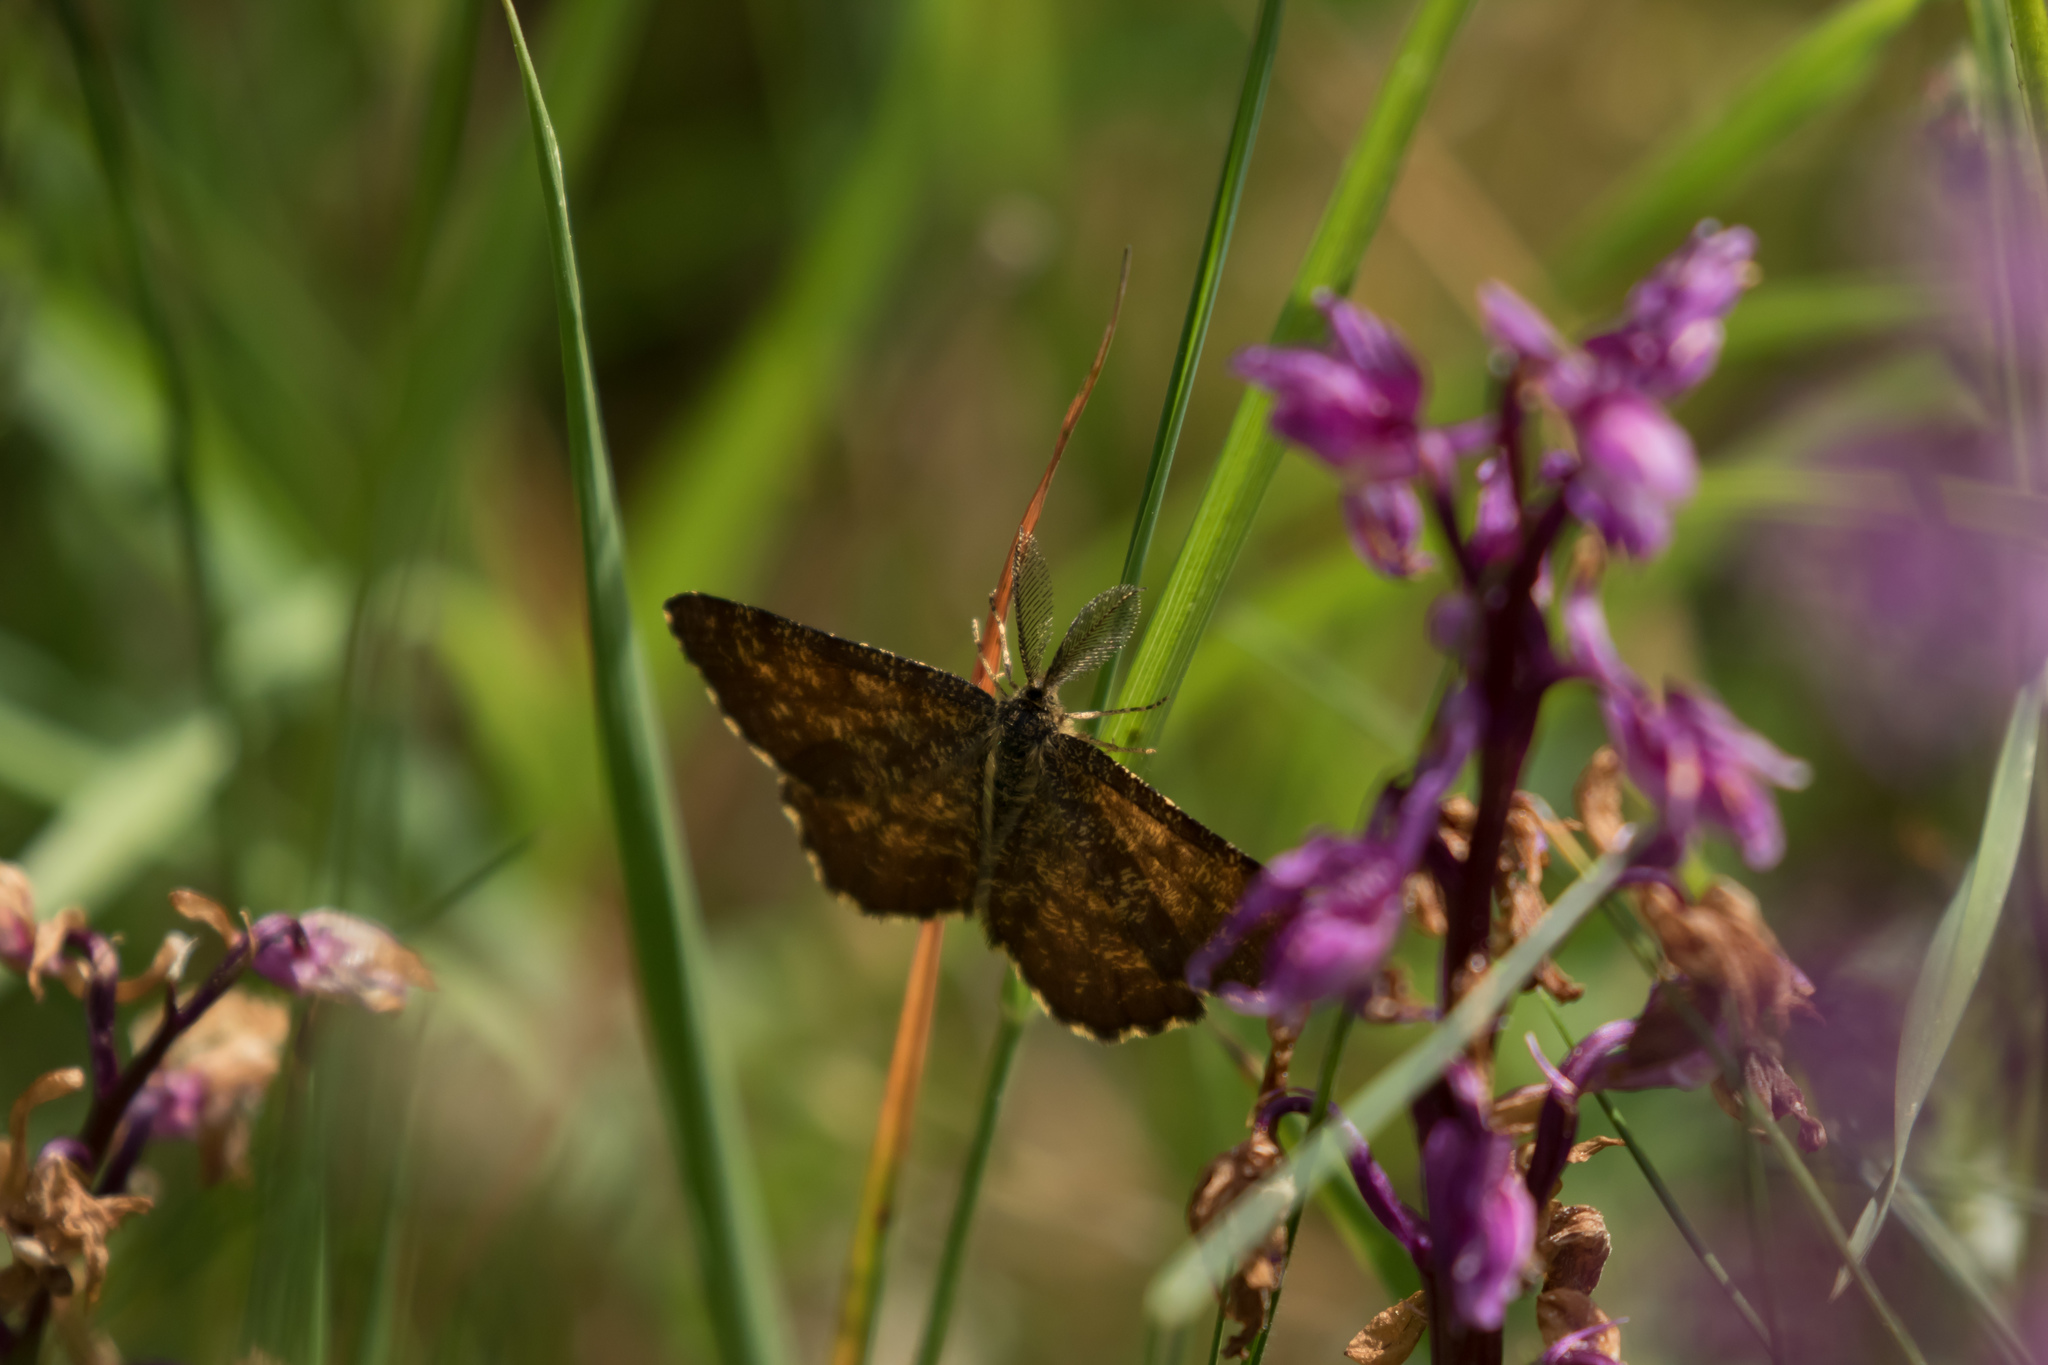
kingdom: Animalia
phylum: Arthropoda
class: Insecta
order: Lepidoptera
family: Geometridae
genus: Ematurga
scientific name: Ematurga atomaria
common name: Common heath
